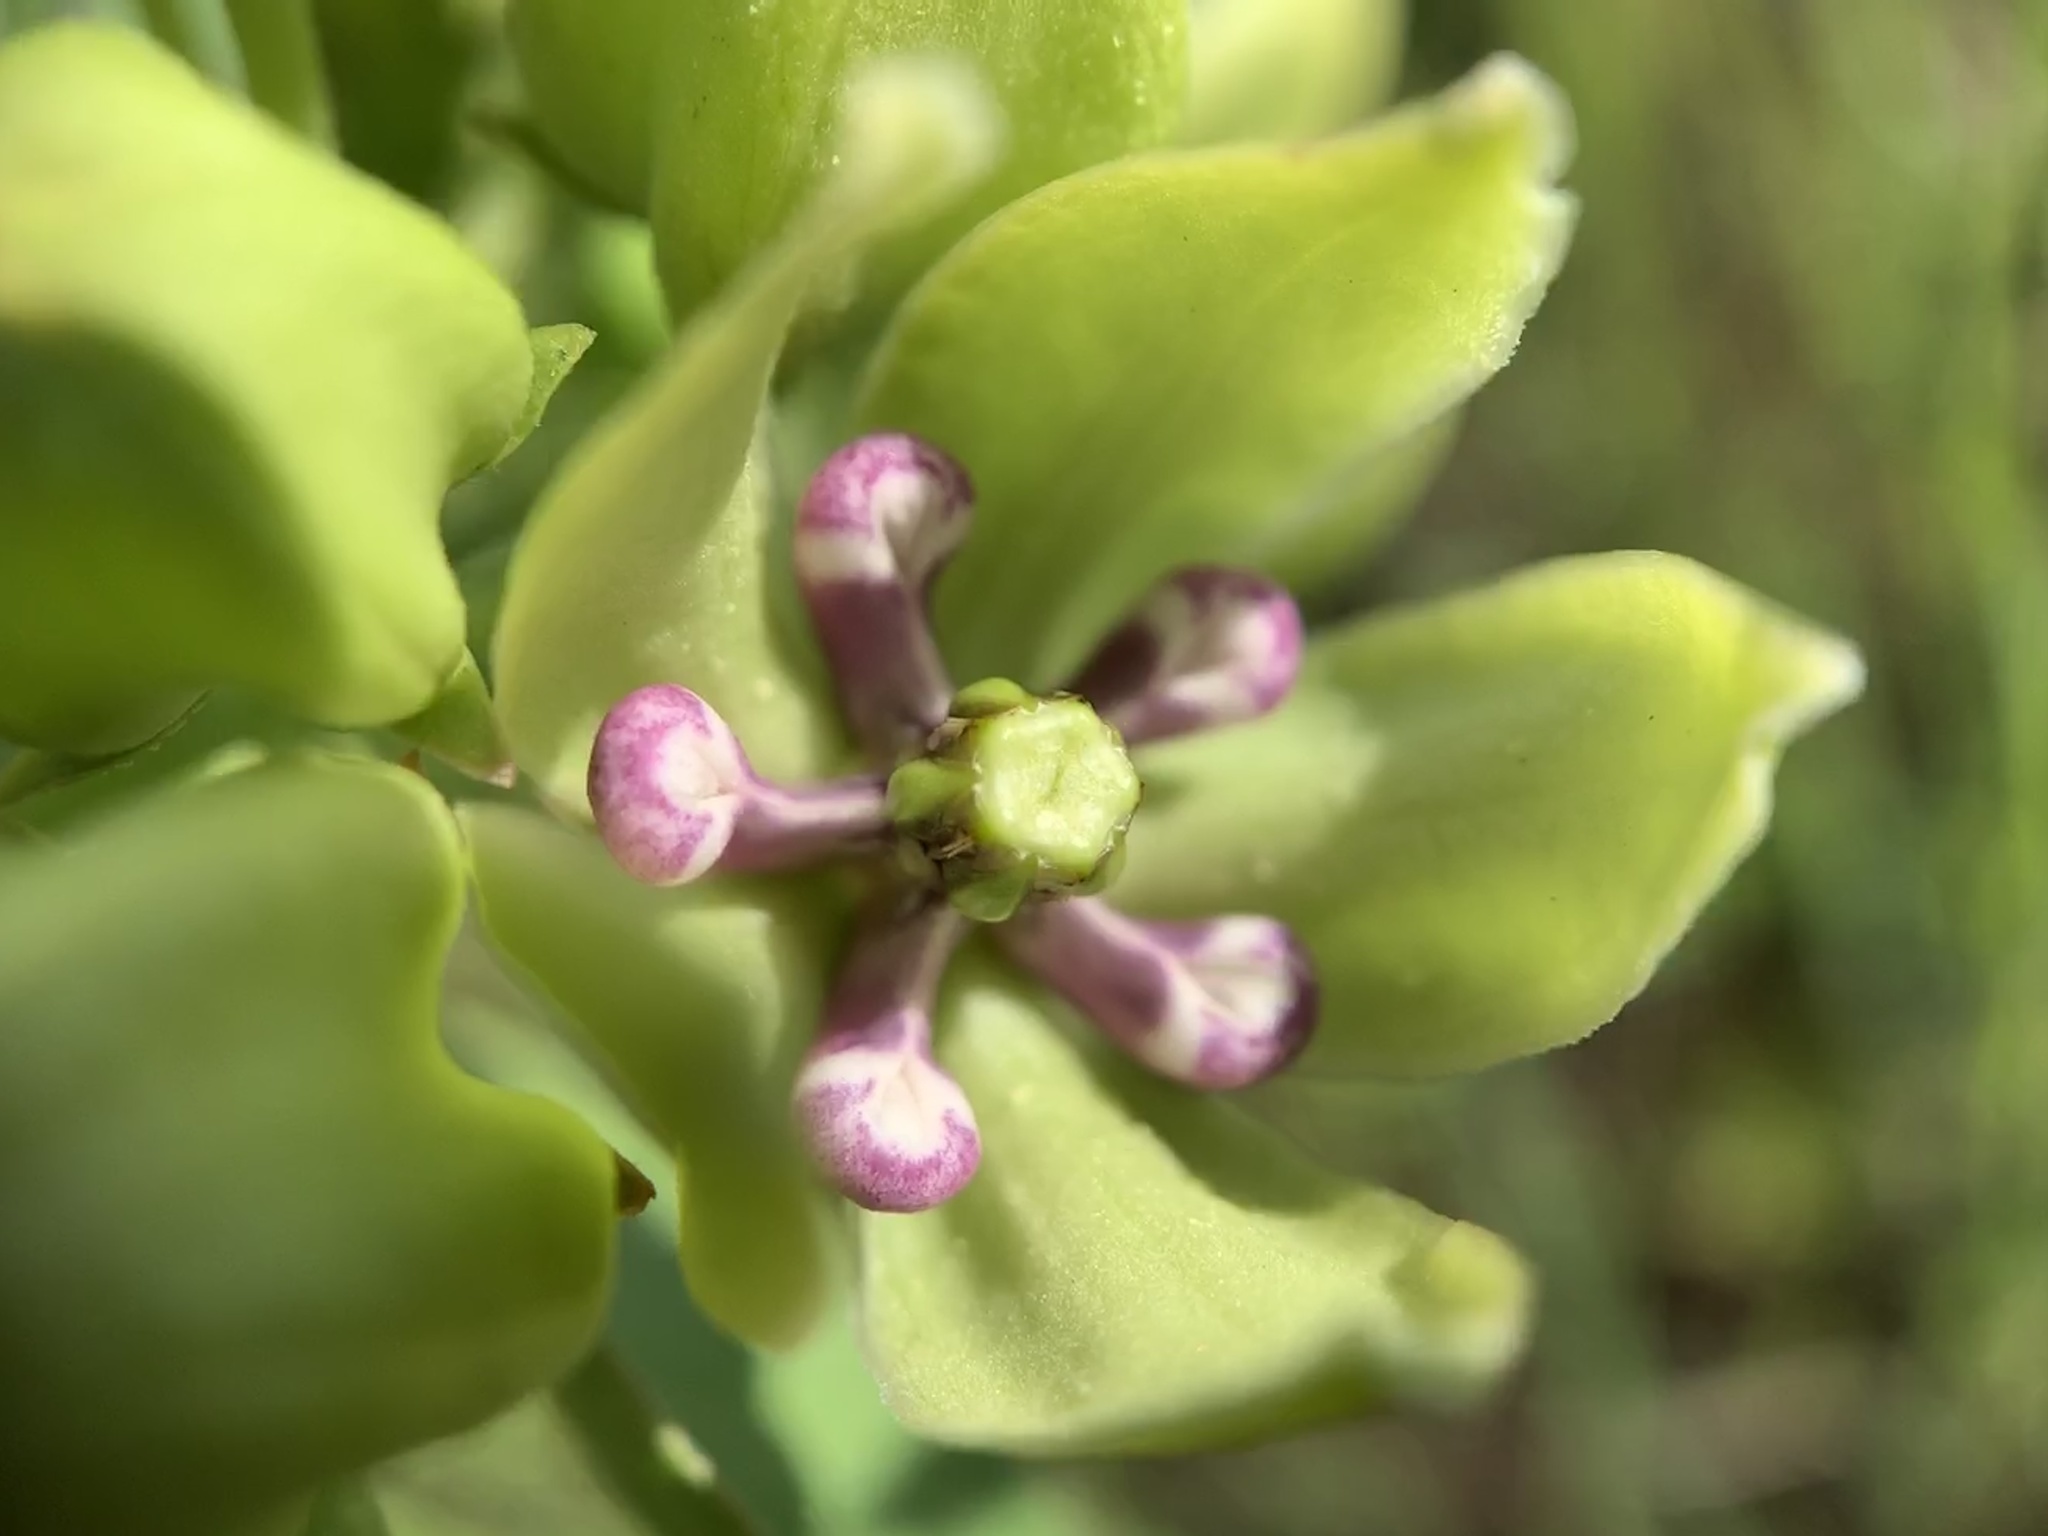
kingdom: Plantae
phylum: Tracheophyta
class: Magnoliopsida
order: Gentianales
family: Apocynaceae
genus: Asclepias
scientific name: Asclepias viridis
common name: Antelope-horns
